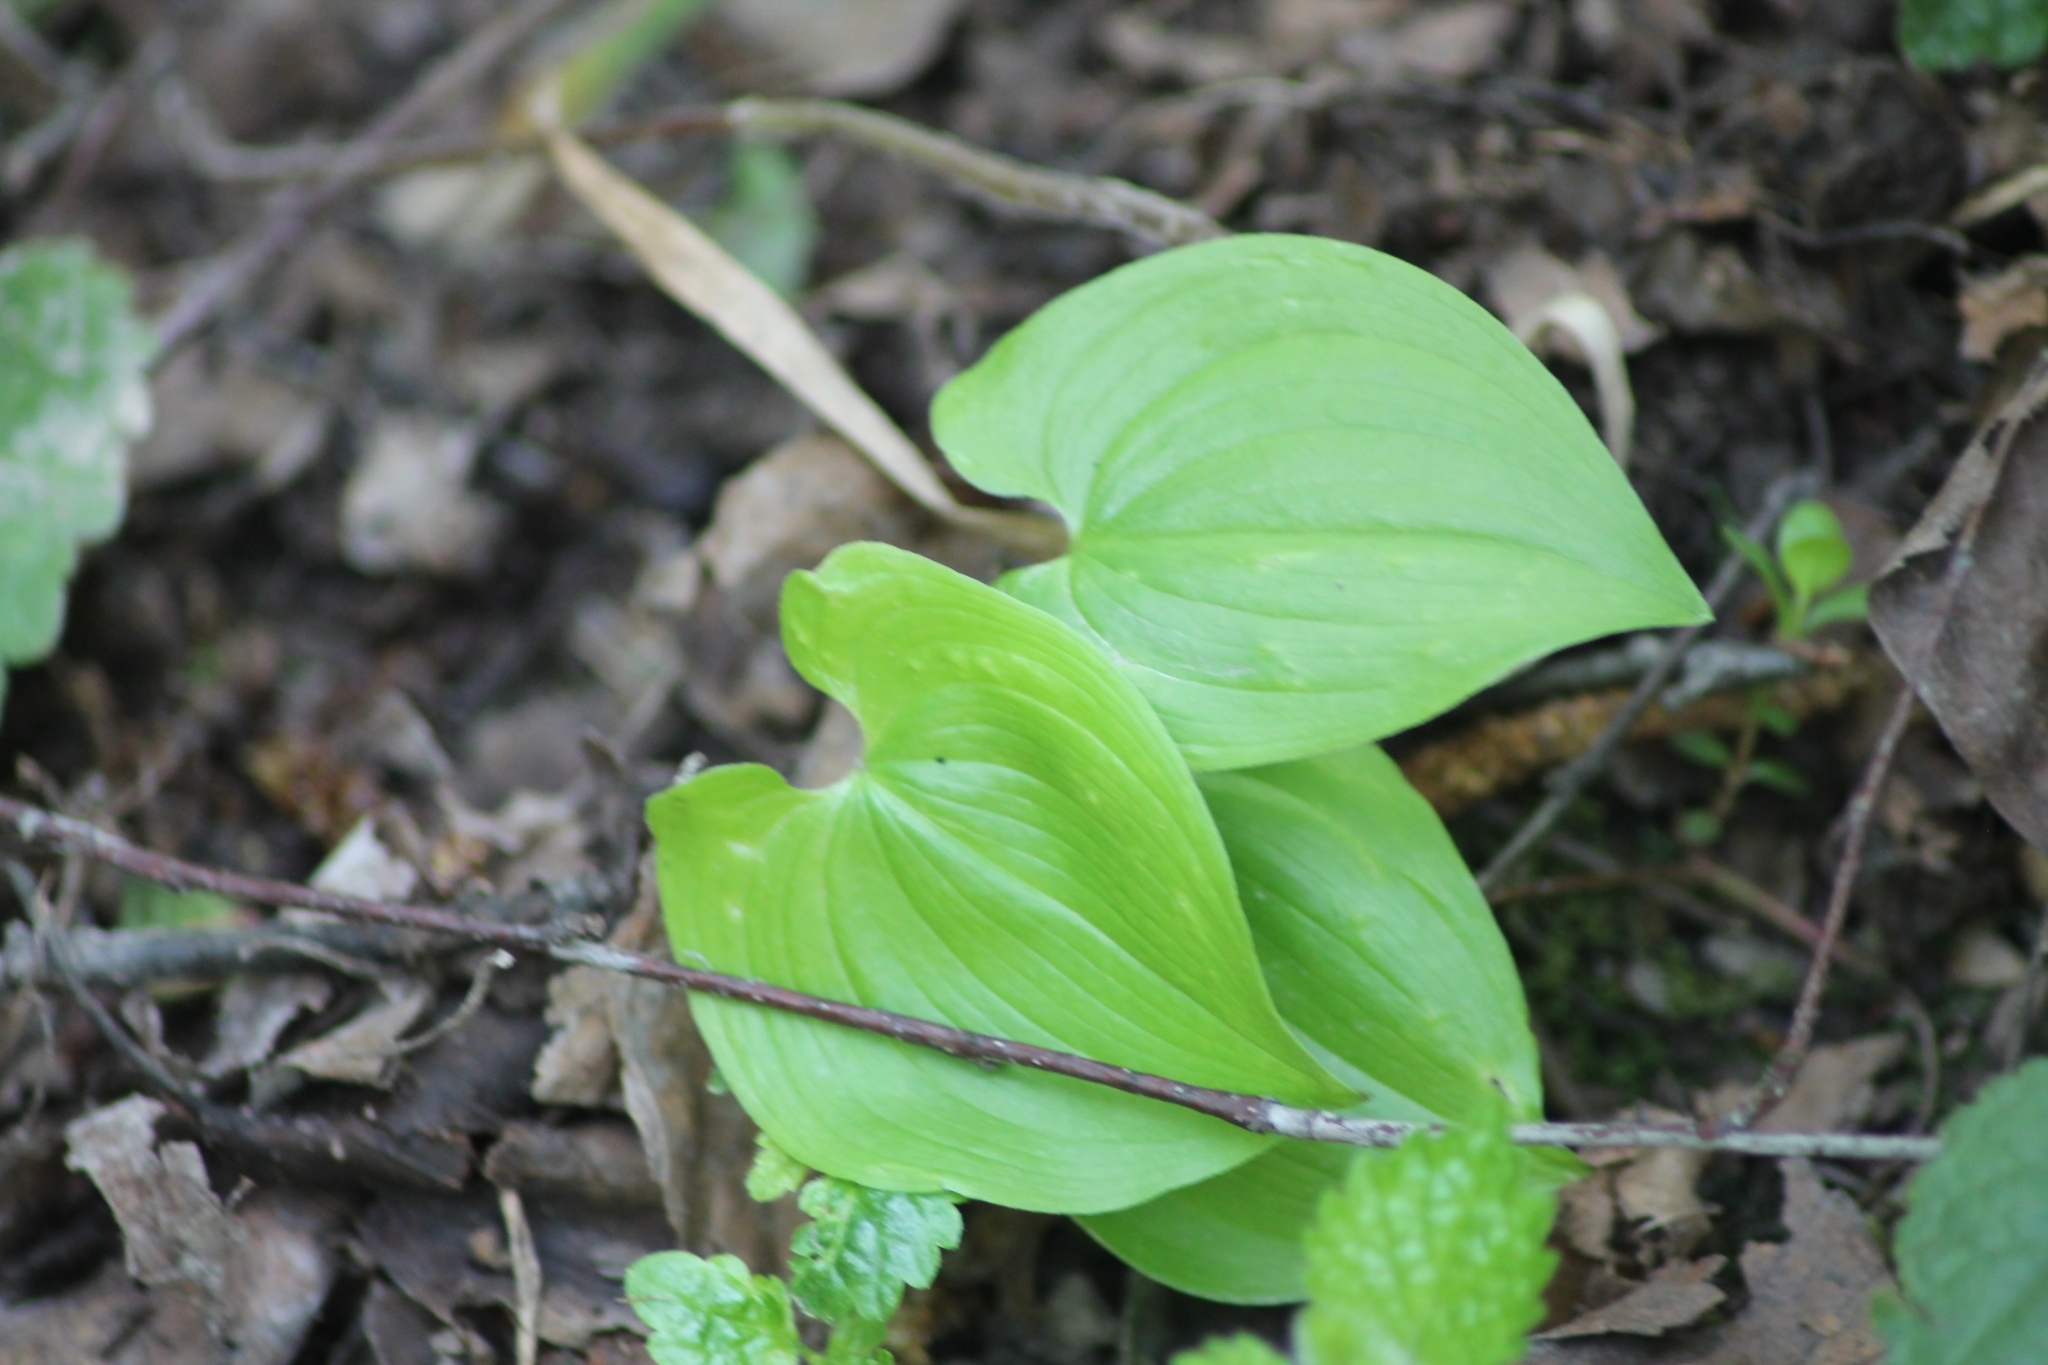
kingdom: Plantae
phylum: Tracheophyta
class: Liliopsida
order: Asparagales
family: Asparagaceae
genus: Maianthemum
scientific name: Maianthemum bifolium
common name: May lily
